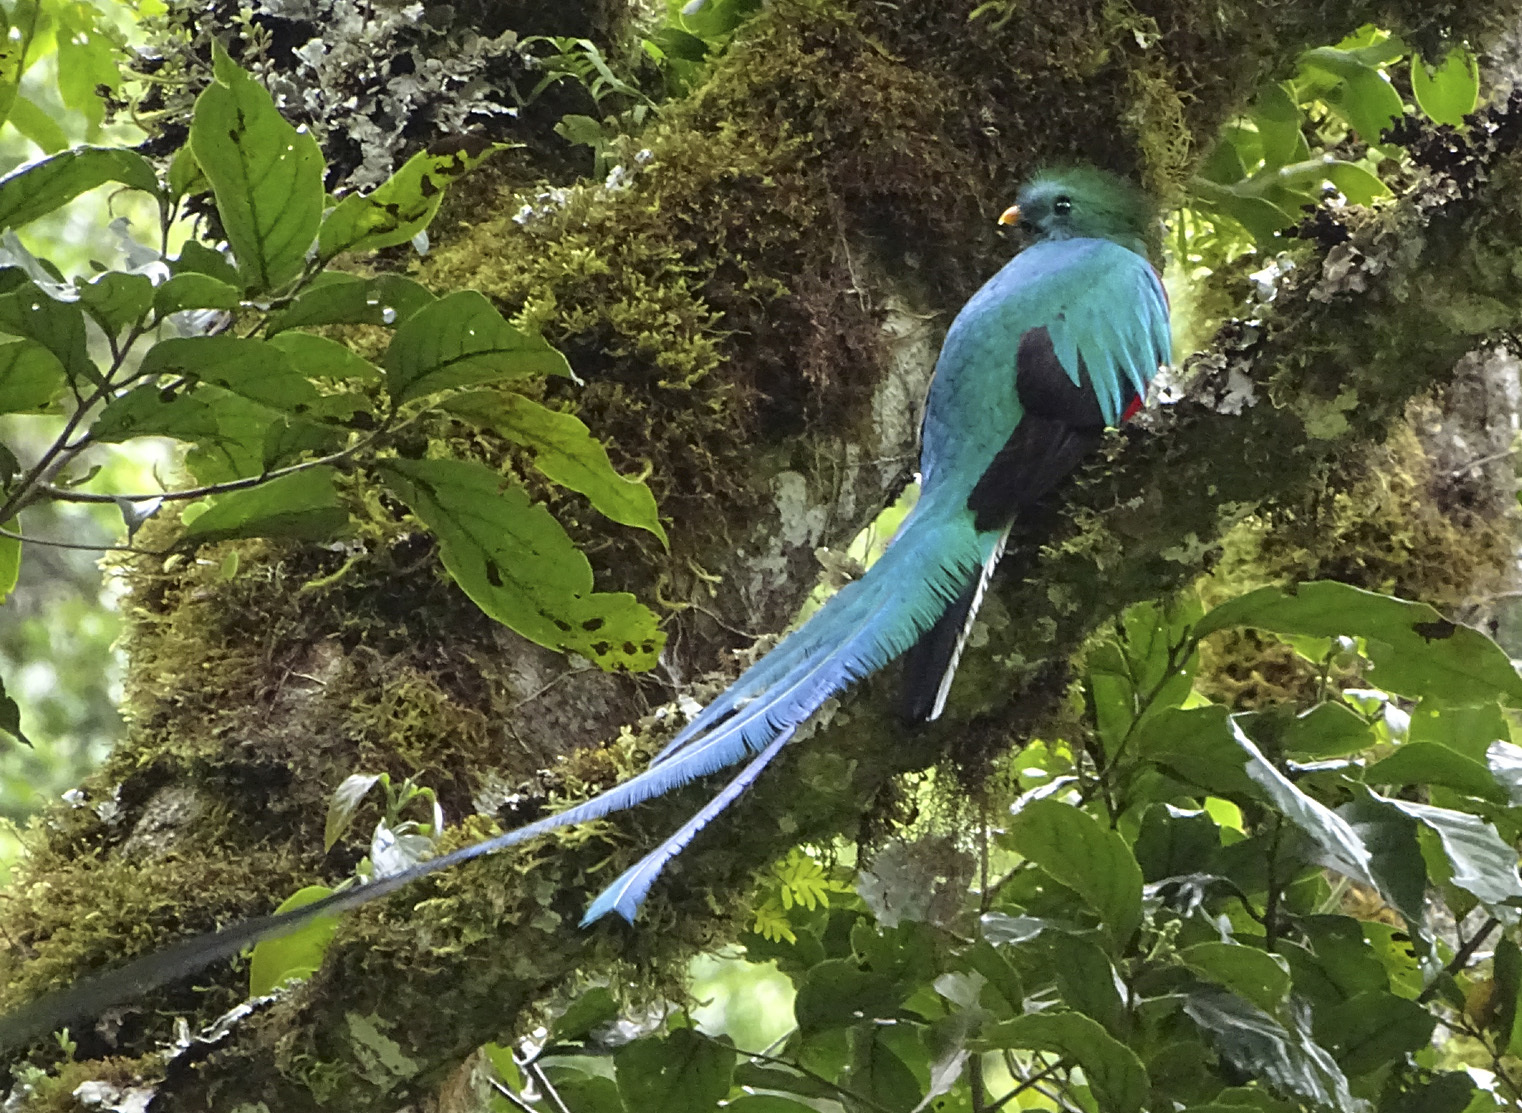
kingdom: Animalia
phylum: Chordata
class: Aves
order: Trogoniformes
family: Trogonidae
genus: Pharomachrus
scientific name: Pharomachrus mocinno
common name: Resplendent quetzal
